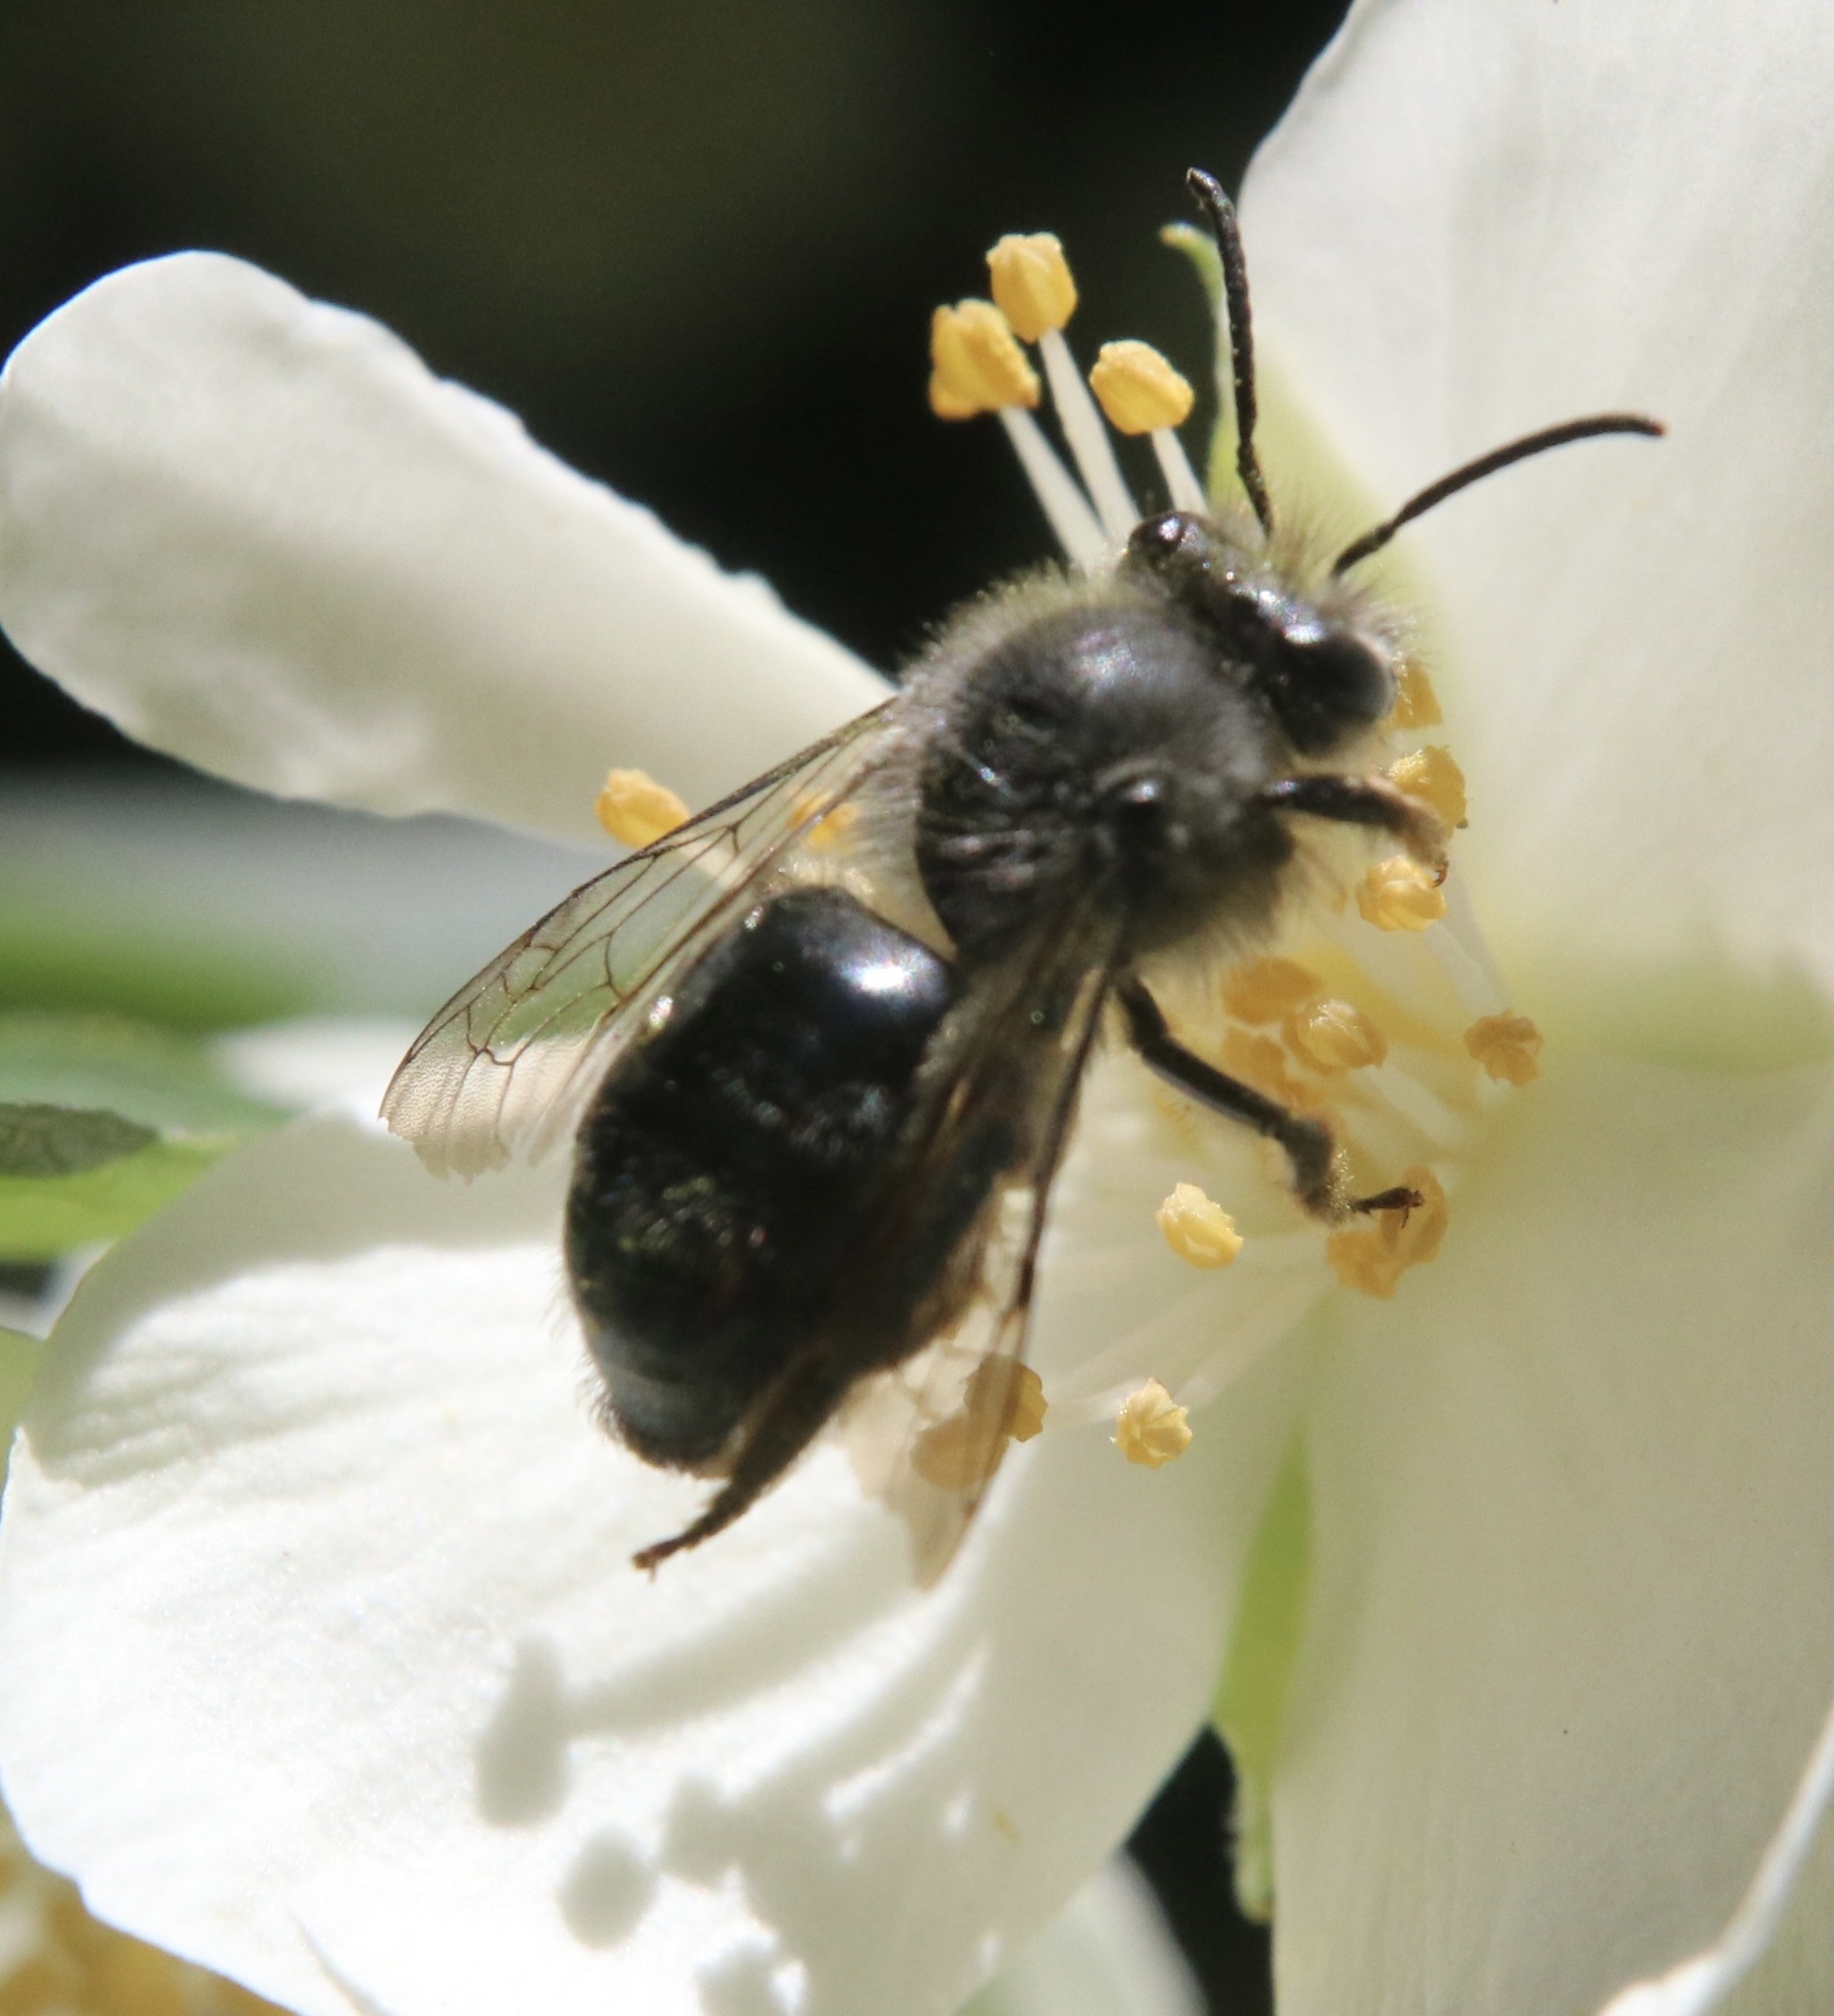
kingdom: Animalia
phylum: Arthropoda
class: Insecta
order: Hymenoptera
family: Colletidae
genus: Cadeguala
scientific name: Cadeguala albopilosa
